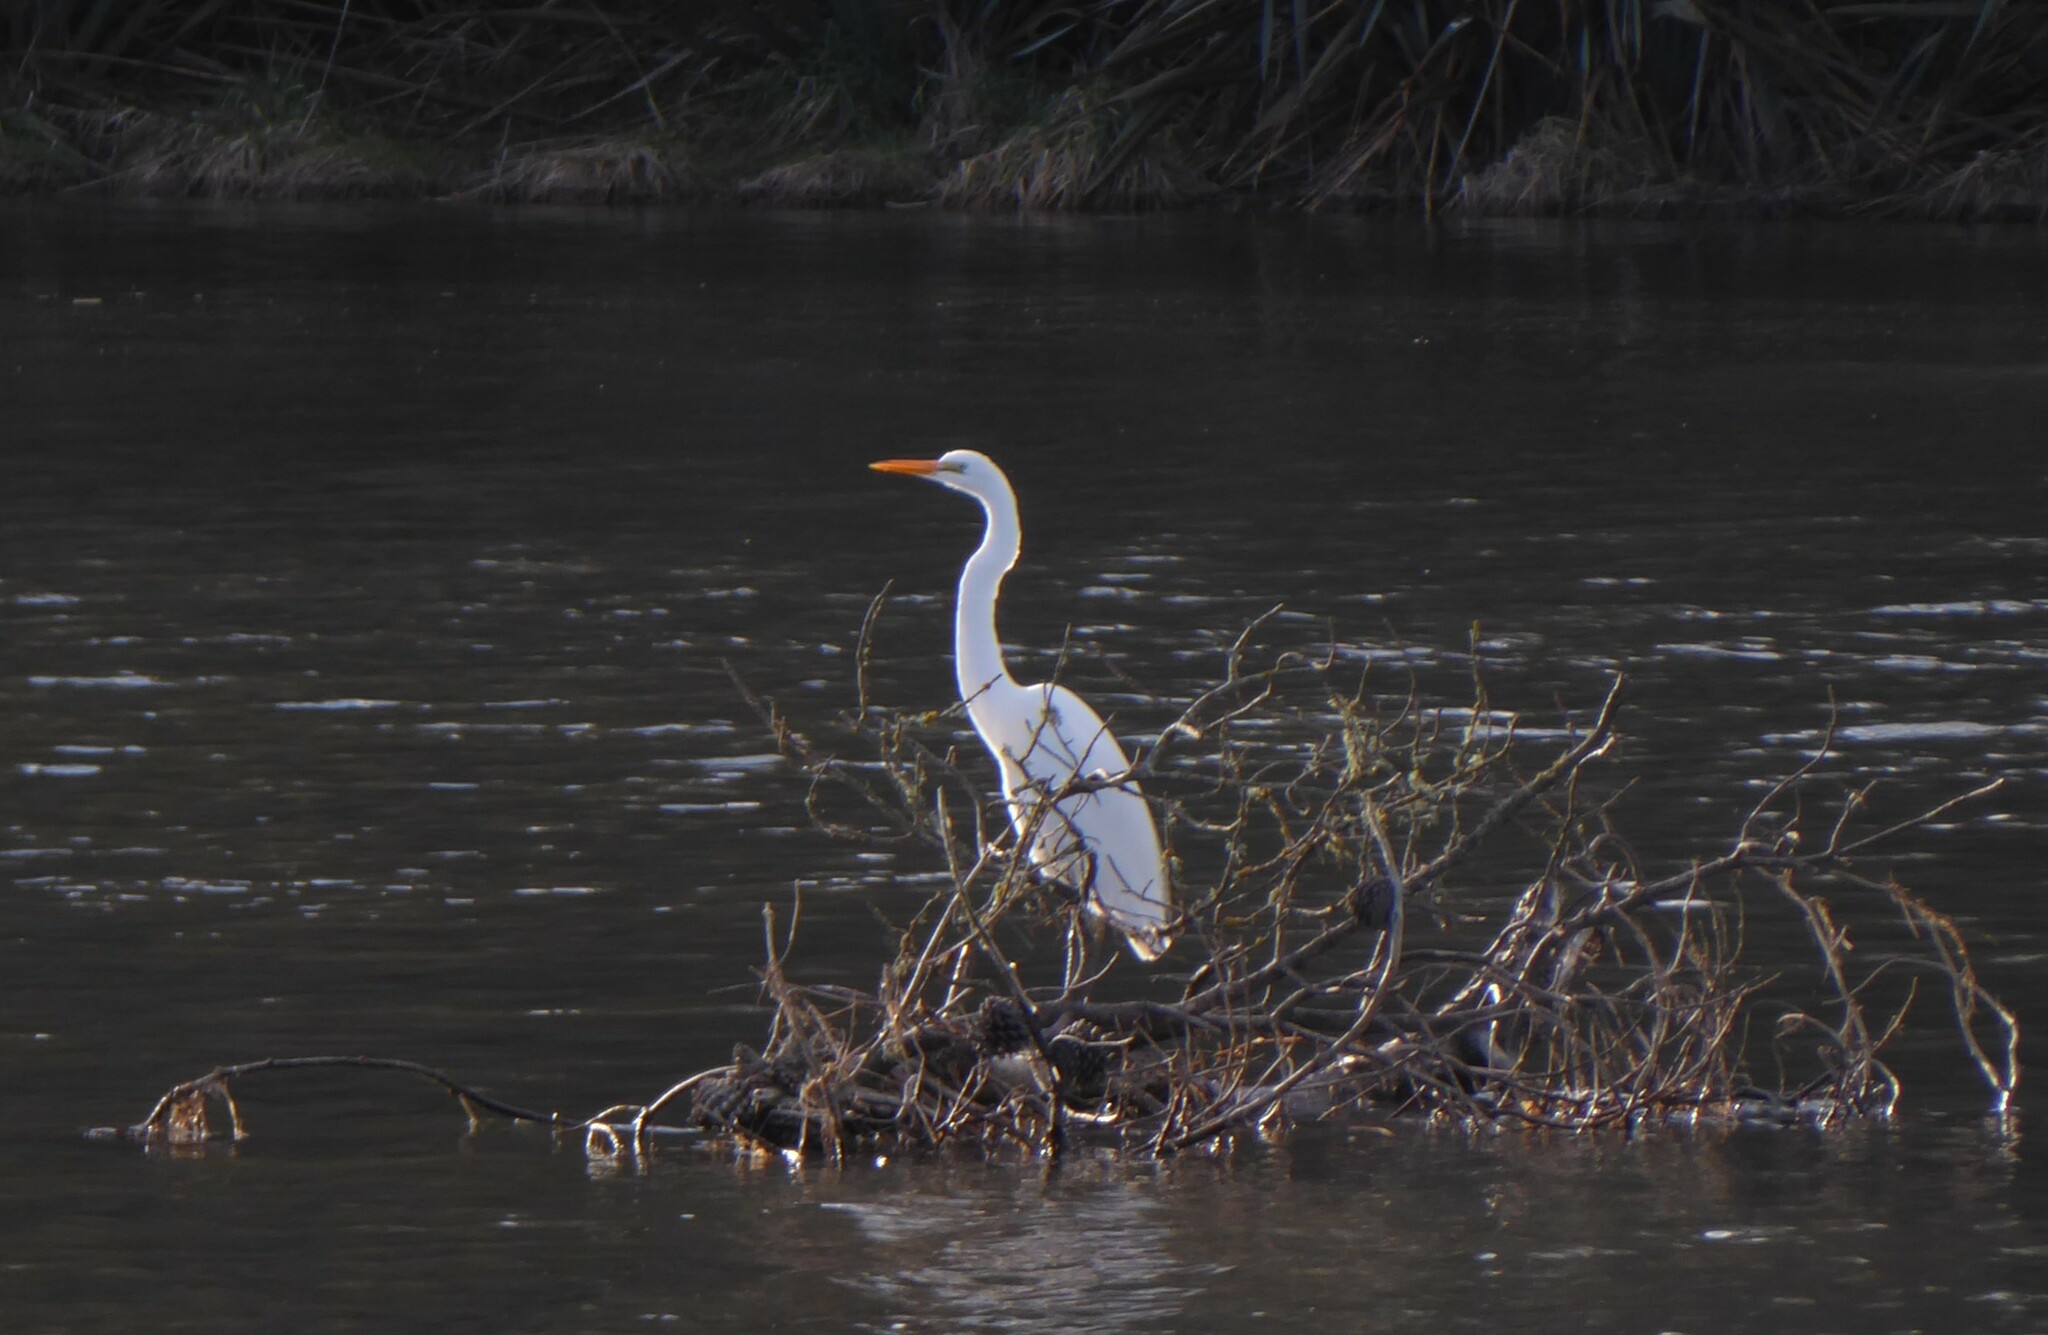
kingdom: Animalia
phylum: Chordata
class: Aves
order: Pelecaniformes
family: Ardeidae
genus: Ardea
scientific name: Ardea modesta
